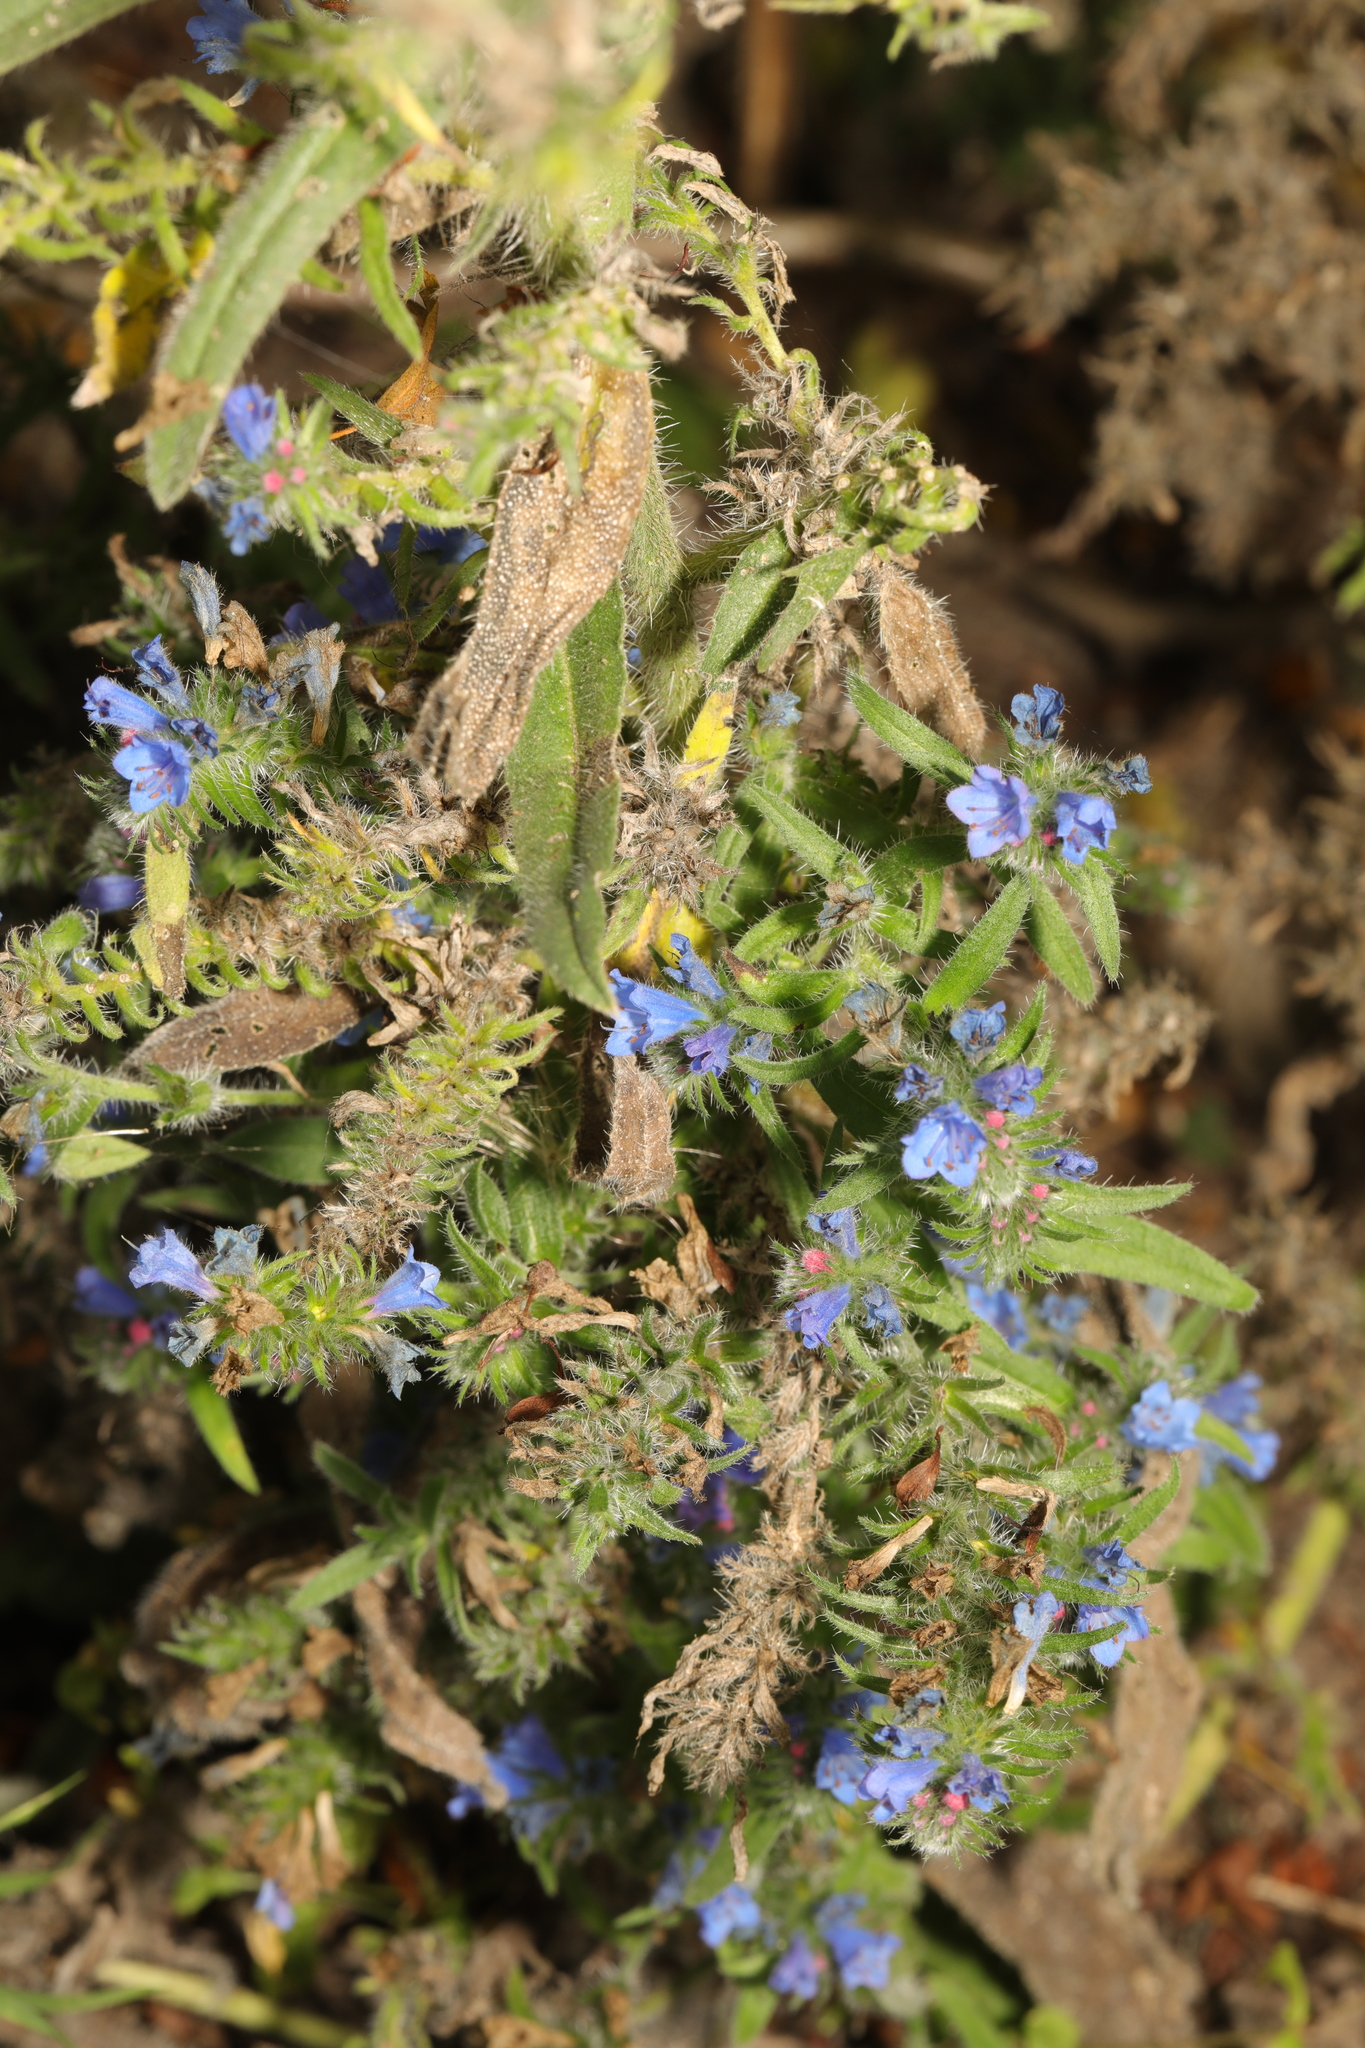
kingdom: Plantae
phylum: Tracheophyta
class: Magnoliopsida
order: Boraginales
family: Boraginaceae
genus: Echium
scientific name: Echium vulgare
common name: Common viper's bugloss
